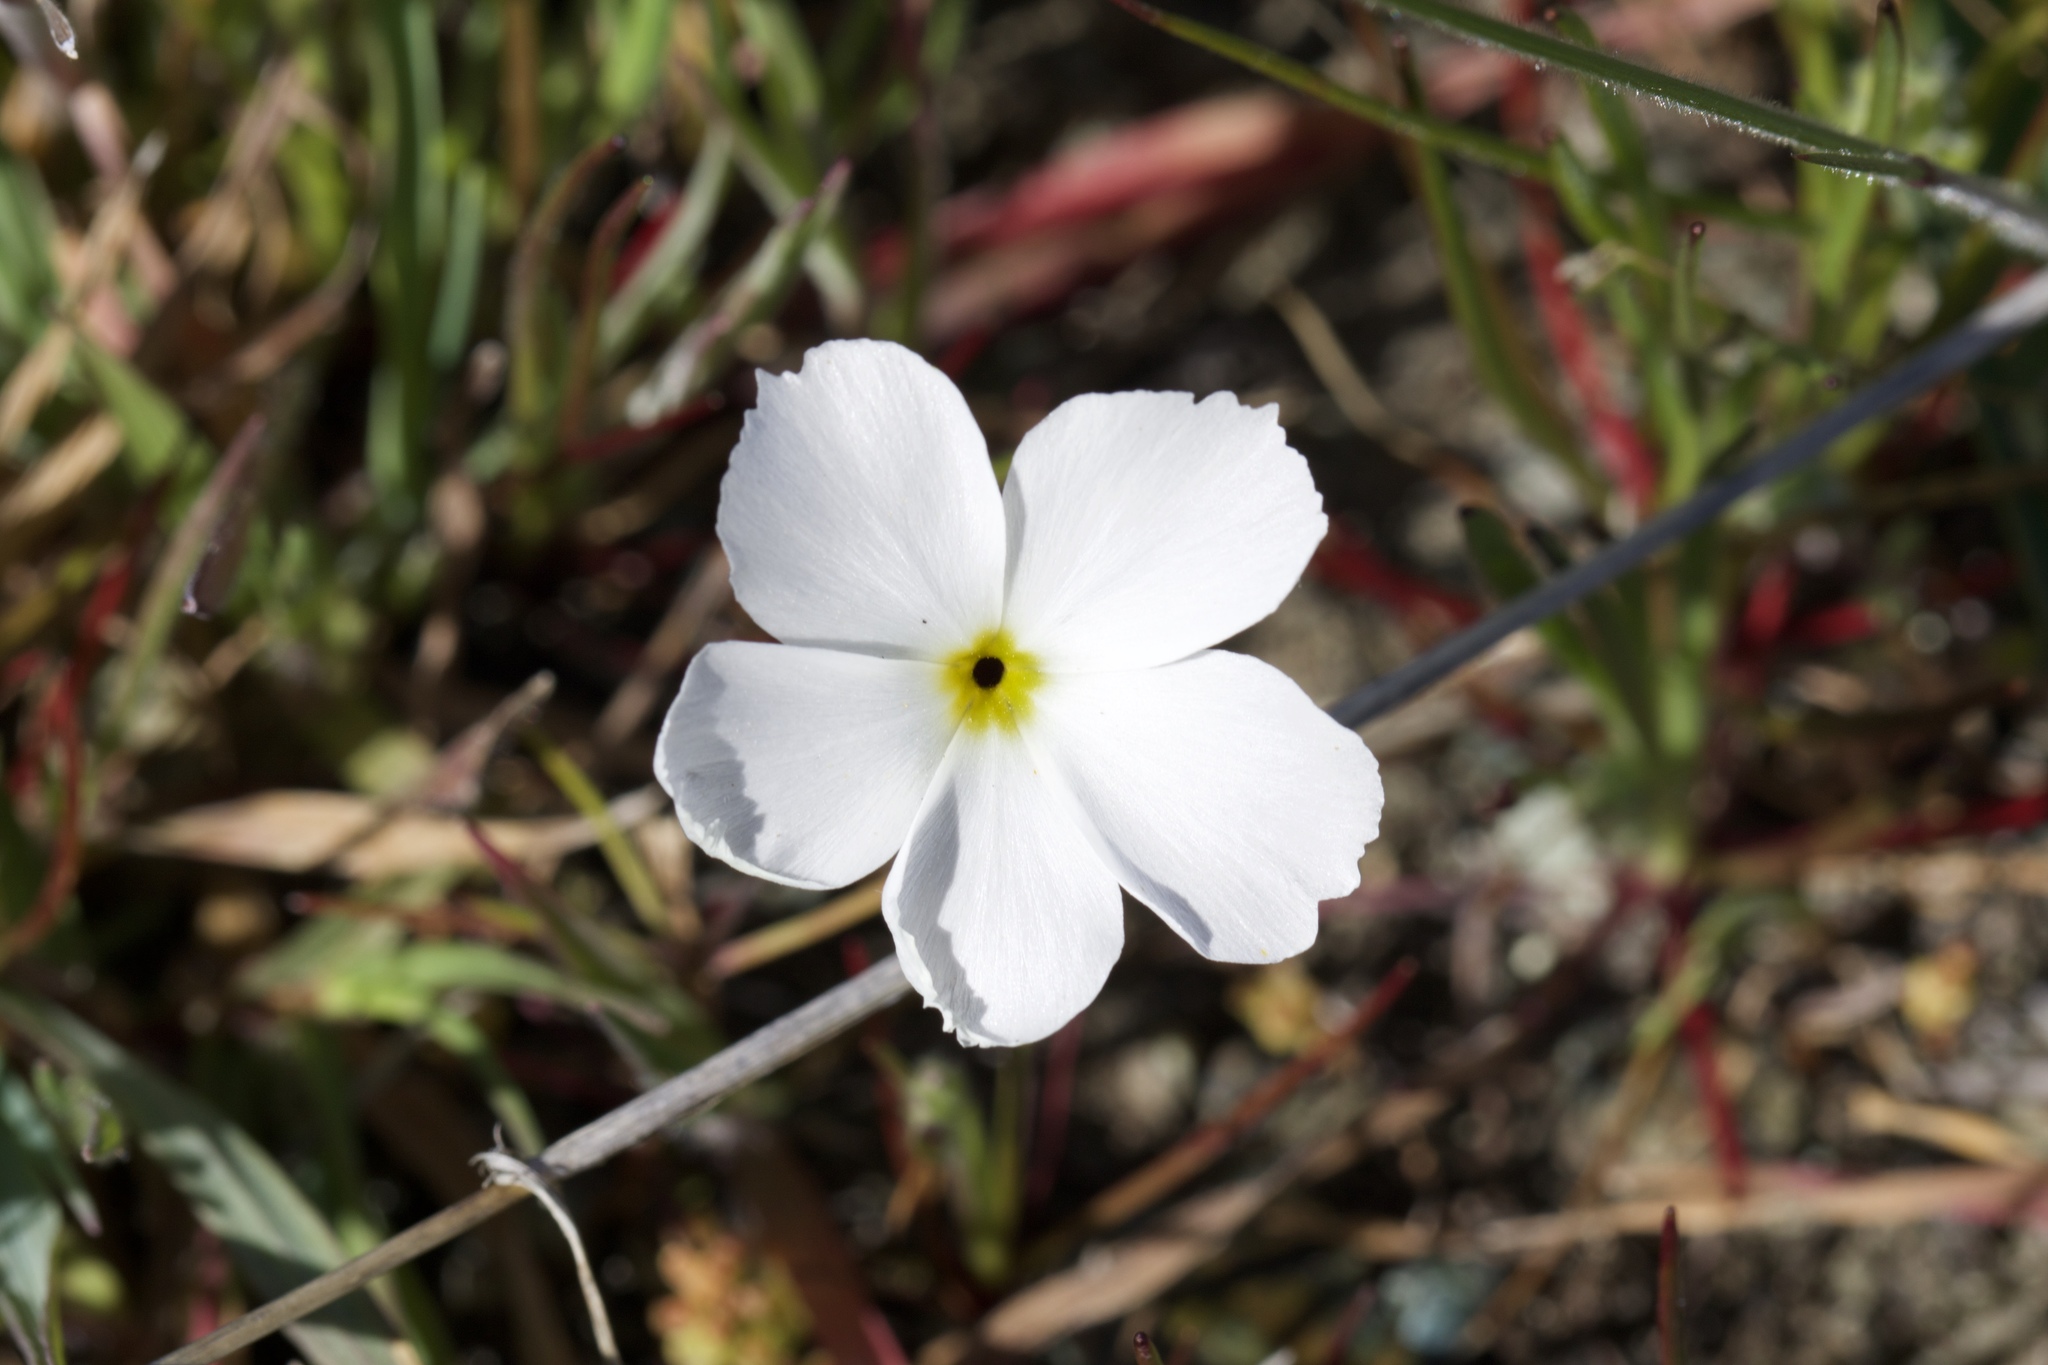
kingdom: Plantae
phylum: Tracheophyta
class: Magnoliopsida
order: Ericales
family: Polemoniaceae
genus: Linanthus
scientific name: Linanthus dichotomus
